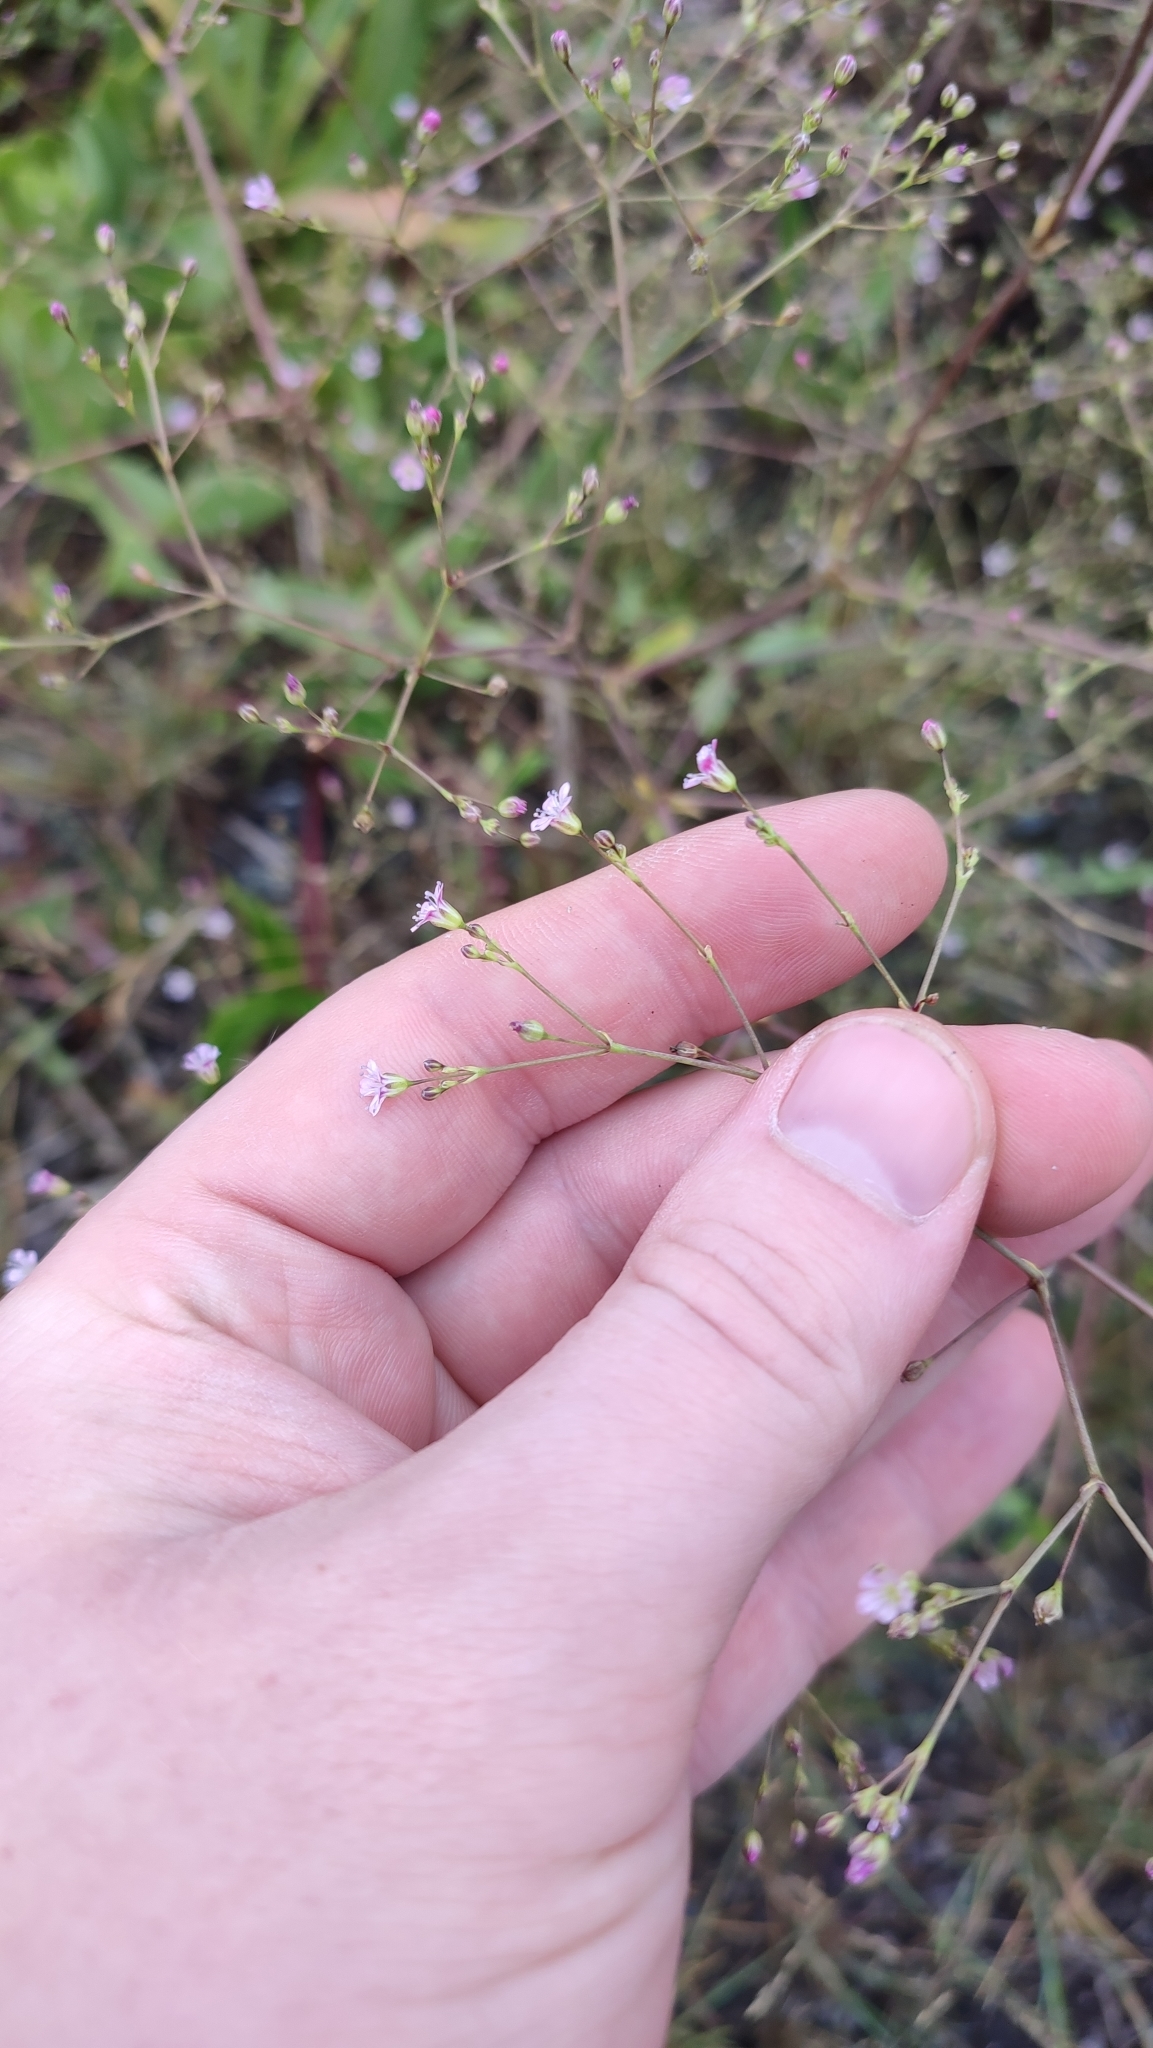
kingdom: Plantae
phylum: Tracheophyta
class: Magnoliopsida
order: Caryophyllales
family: Caryophyllaceae
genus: Gypsophila
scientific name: Gypsophila perfoliata
